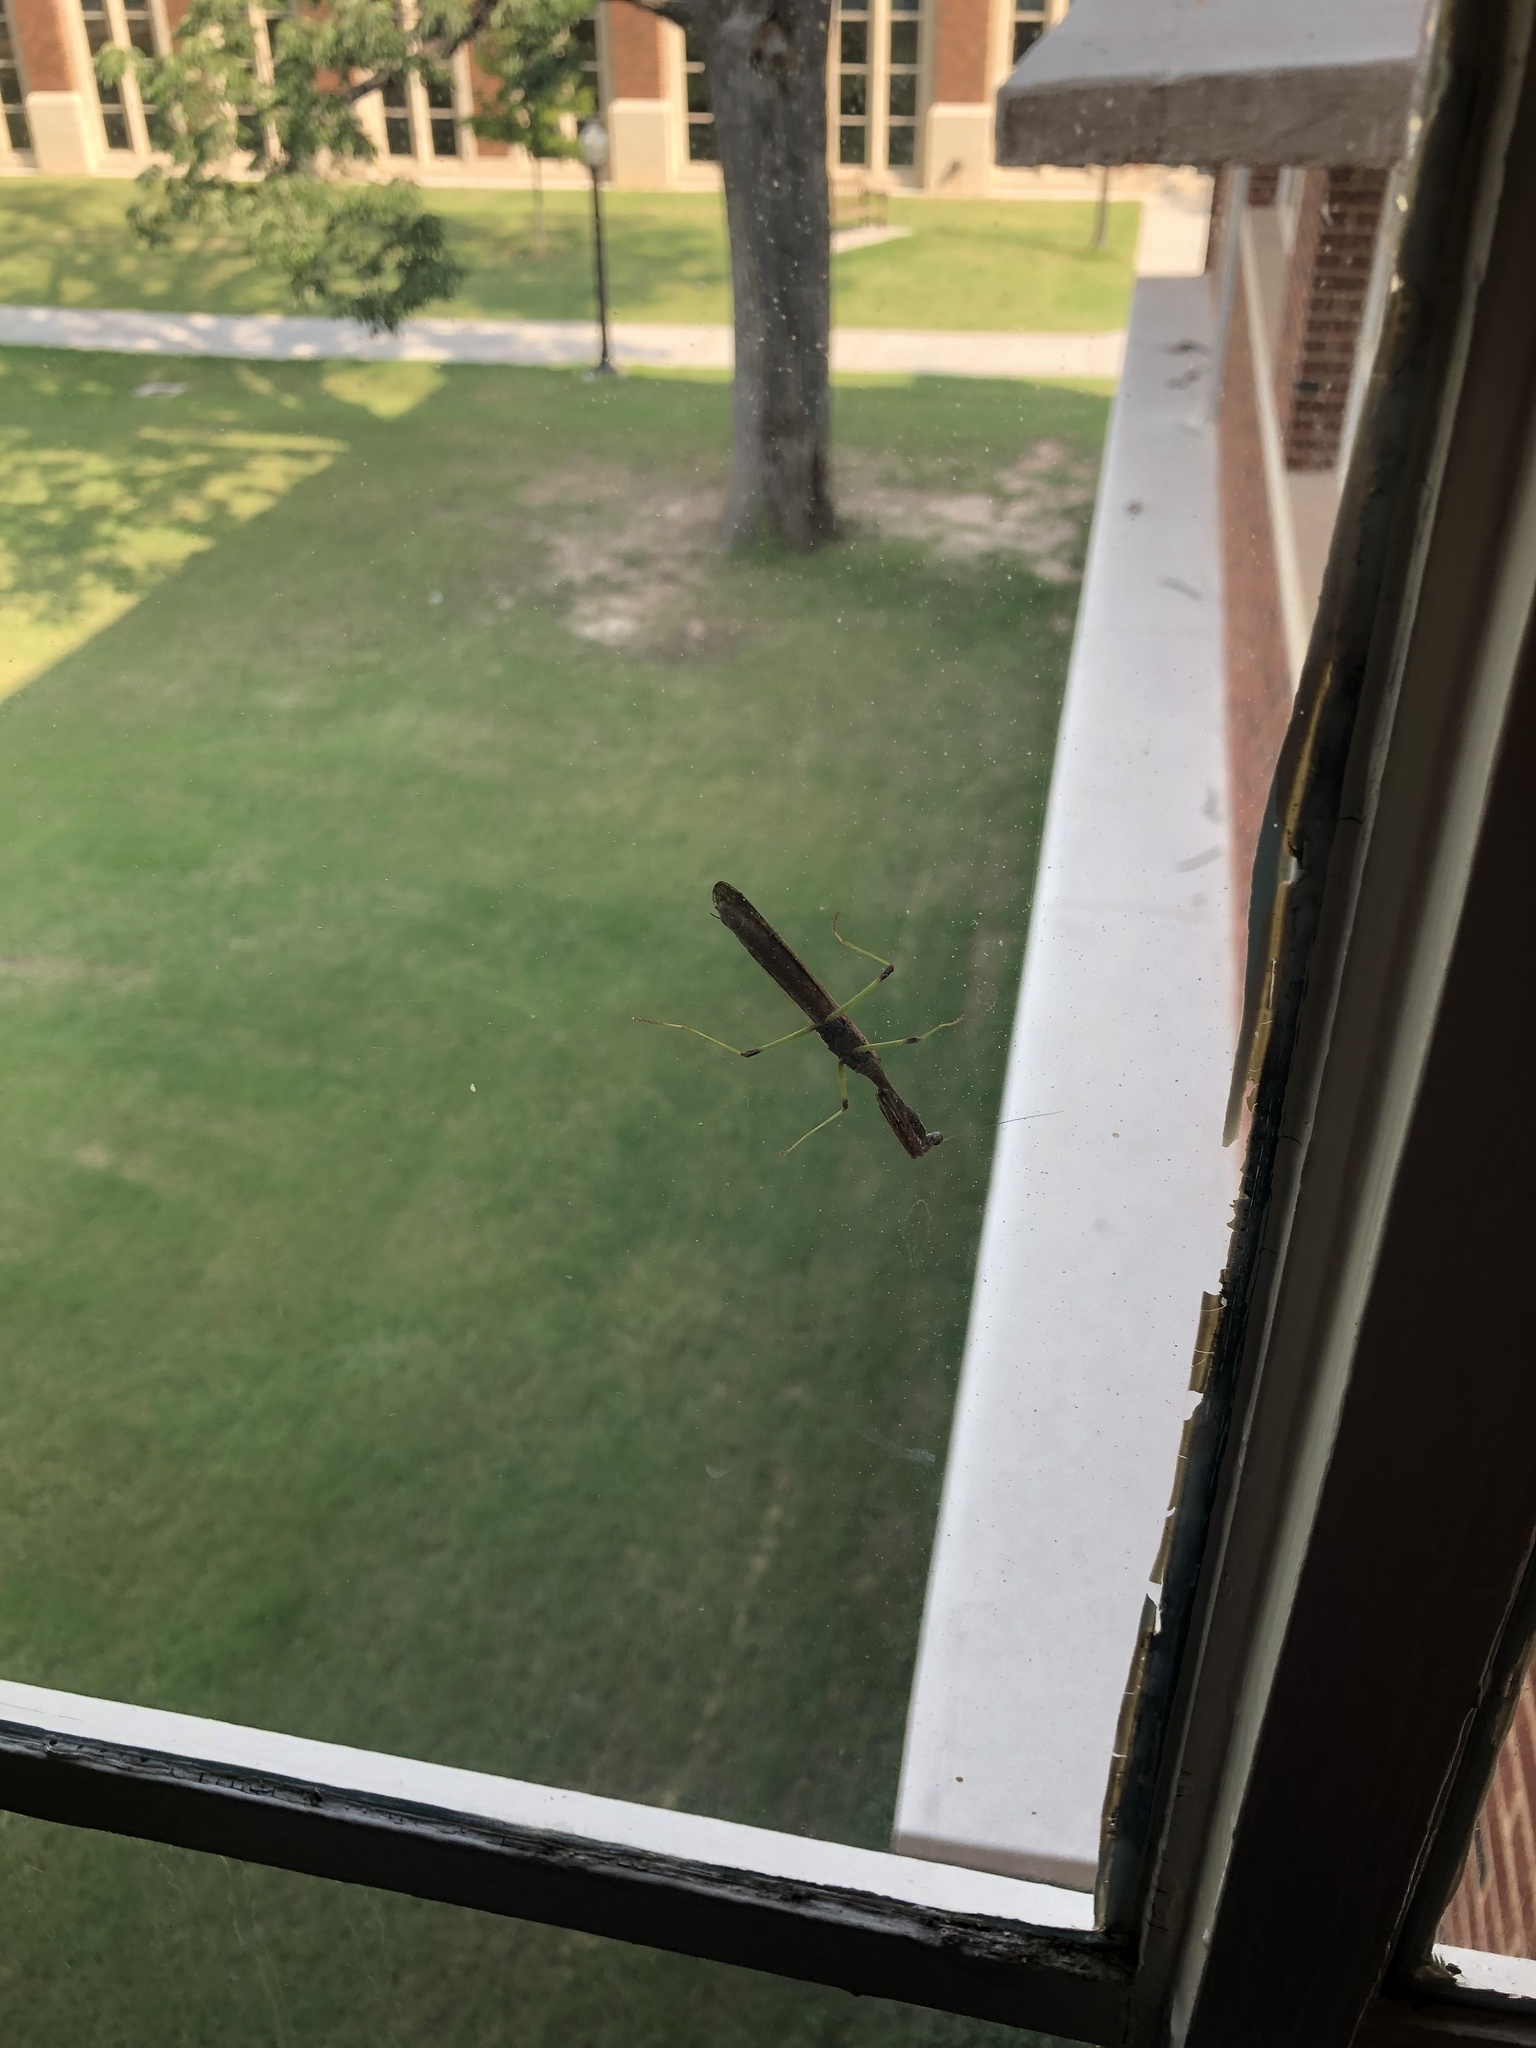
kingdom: Animalia
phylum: Arthropoda
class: Insecta
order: Mantodea
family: Mantidae
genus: Stagmomantis
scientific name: Stagmomantis carolina
